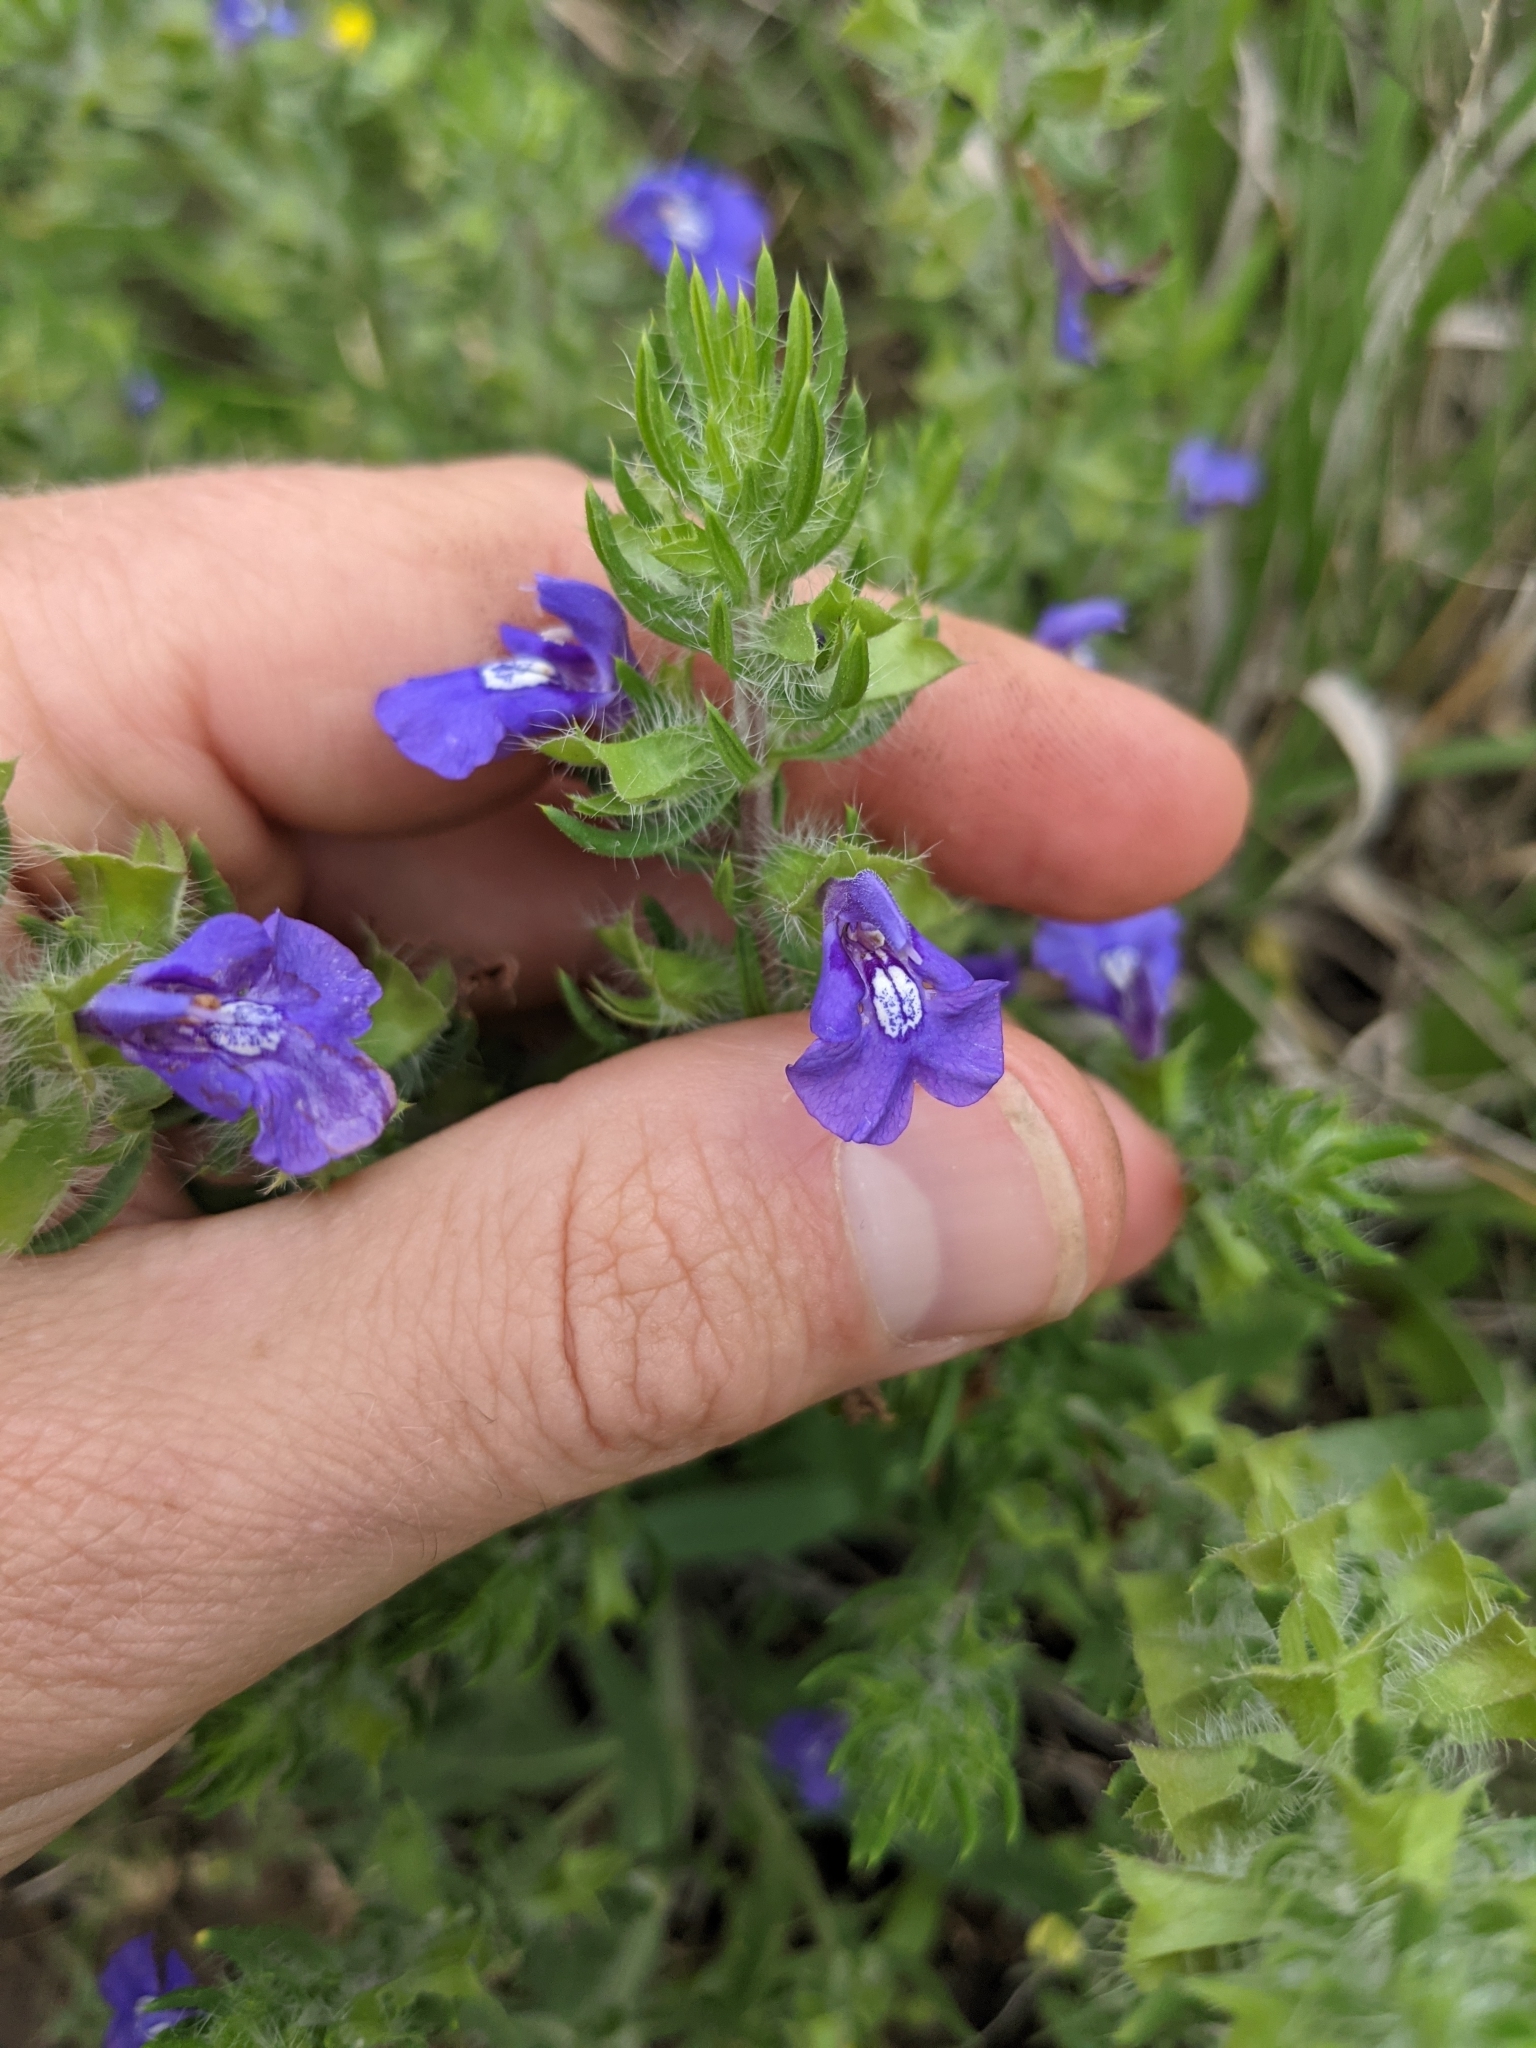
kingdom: Plantae
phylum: Tracheophyta
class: Magnoliopsida
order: Lamiales
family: Lamiaceae
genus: Salvia
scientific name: Salvia texana
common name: Texas sage
